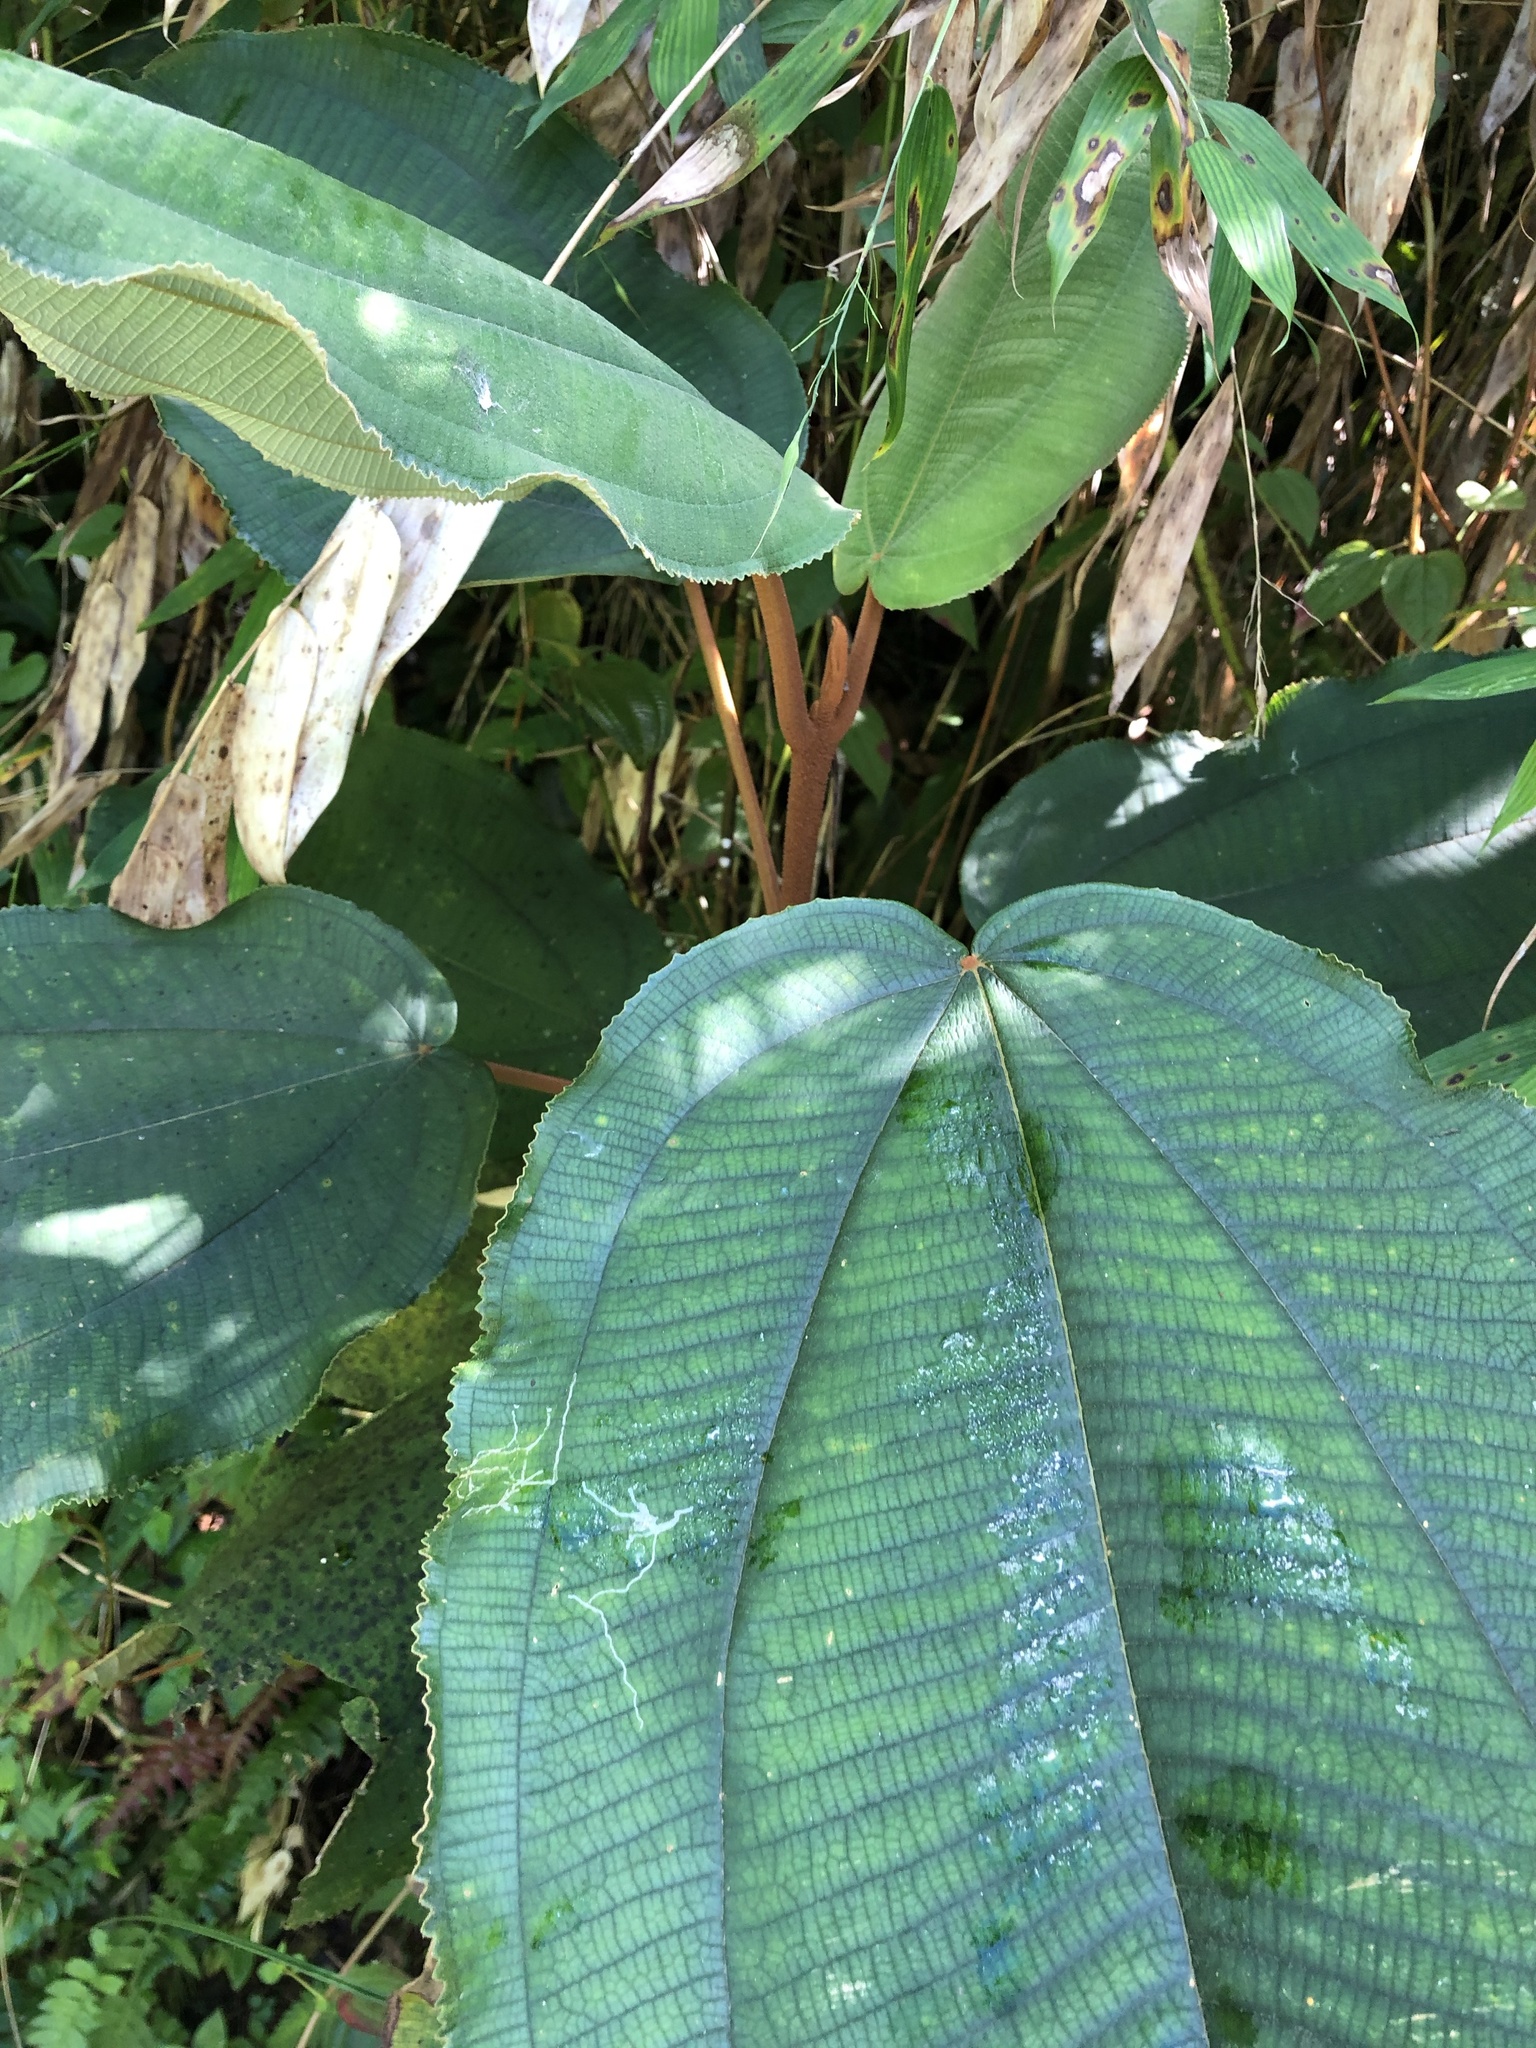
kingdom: Plantae
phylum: Tracheophyta
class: Magnoliopsida
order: Myrtales
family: Melastomataceae
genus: Miconia
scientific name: Miconia serrulata
